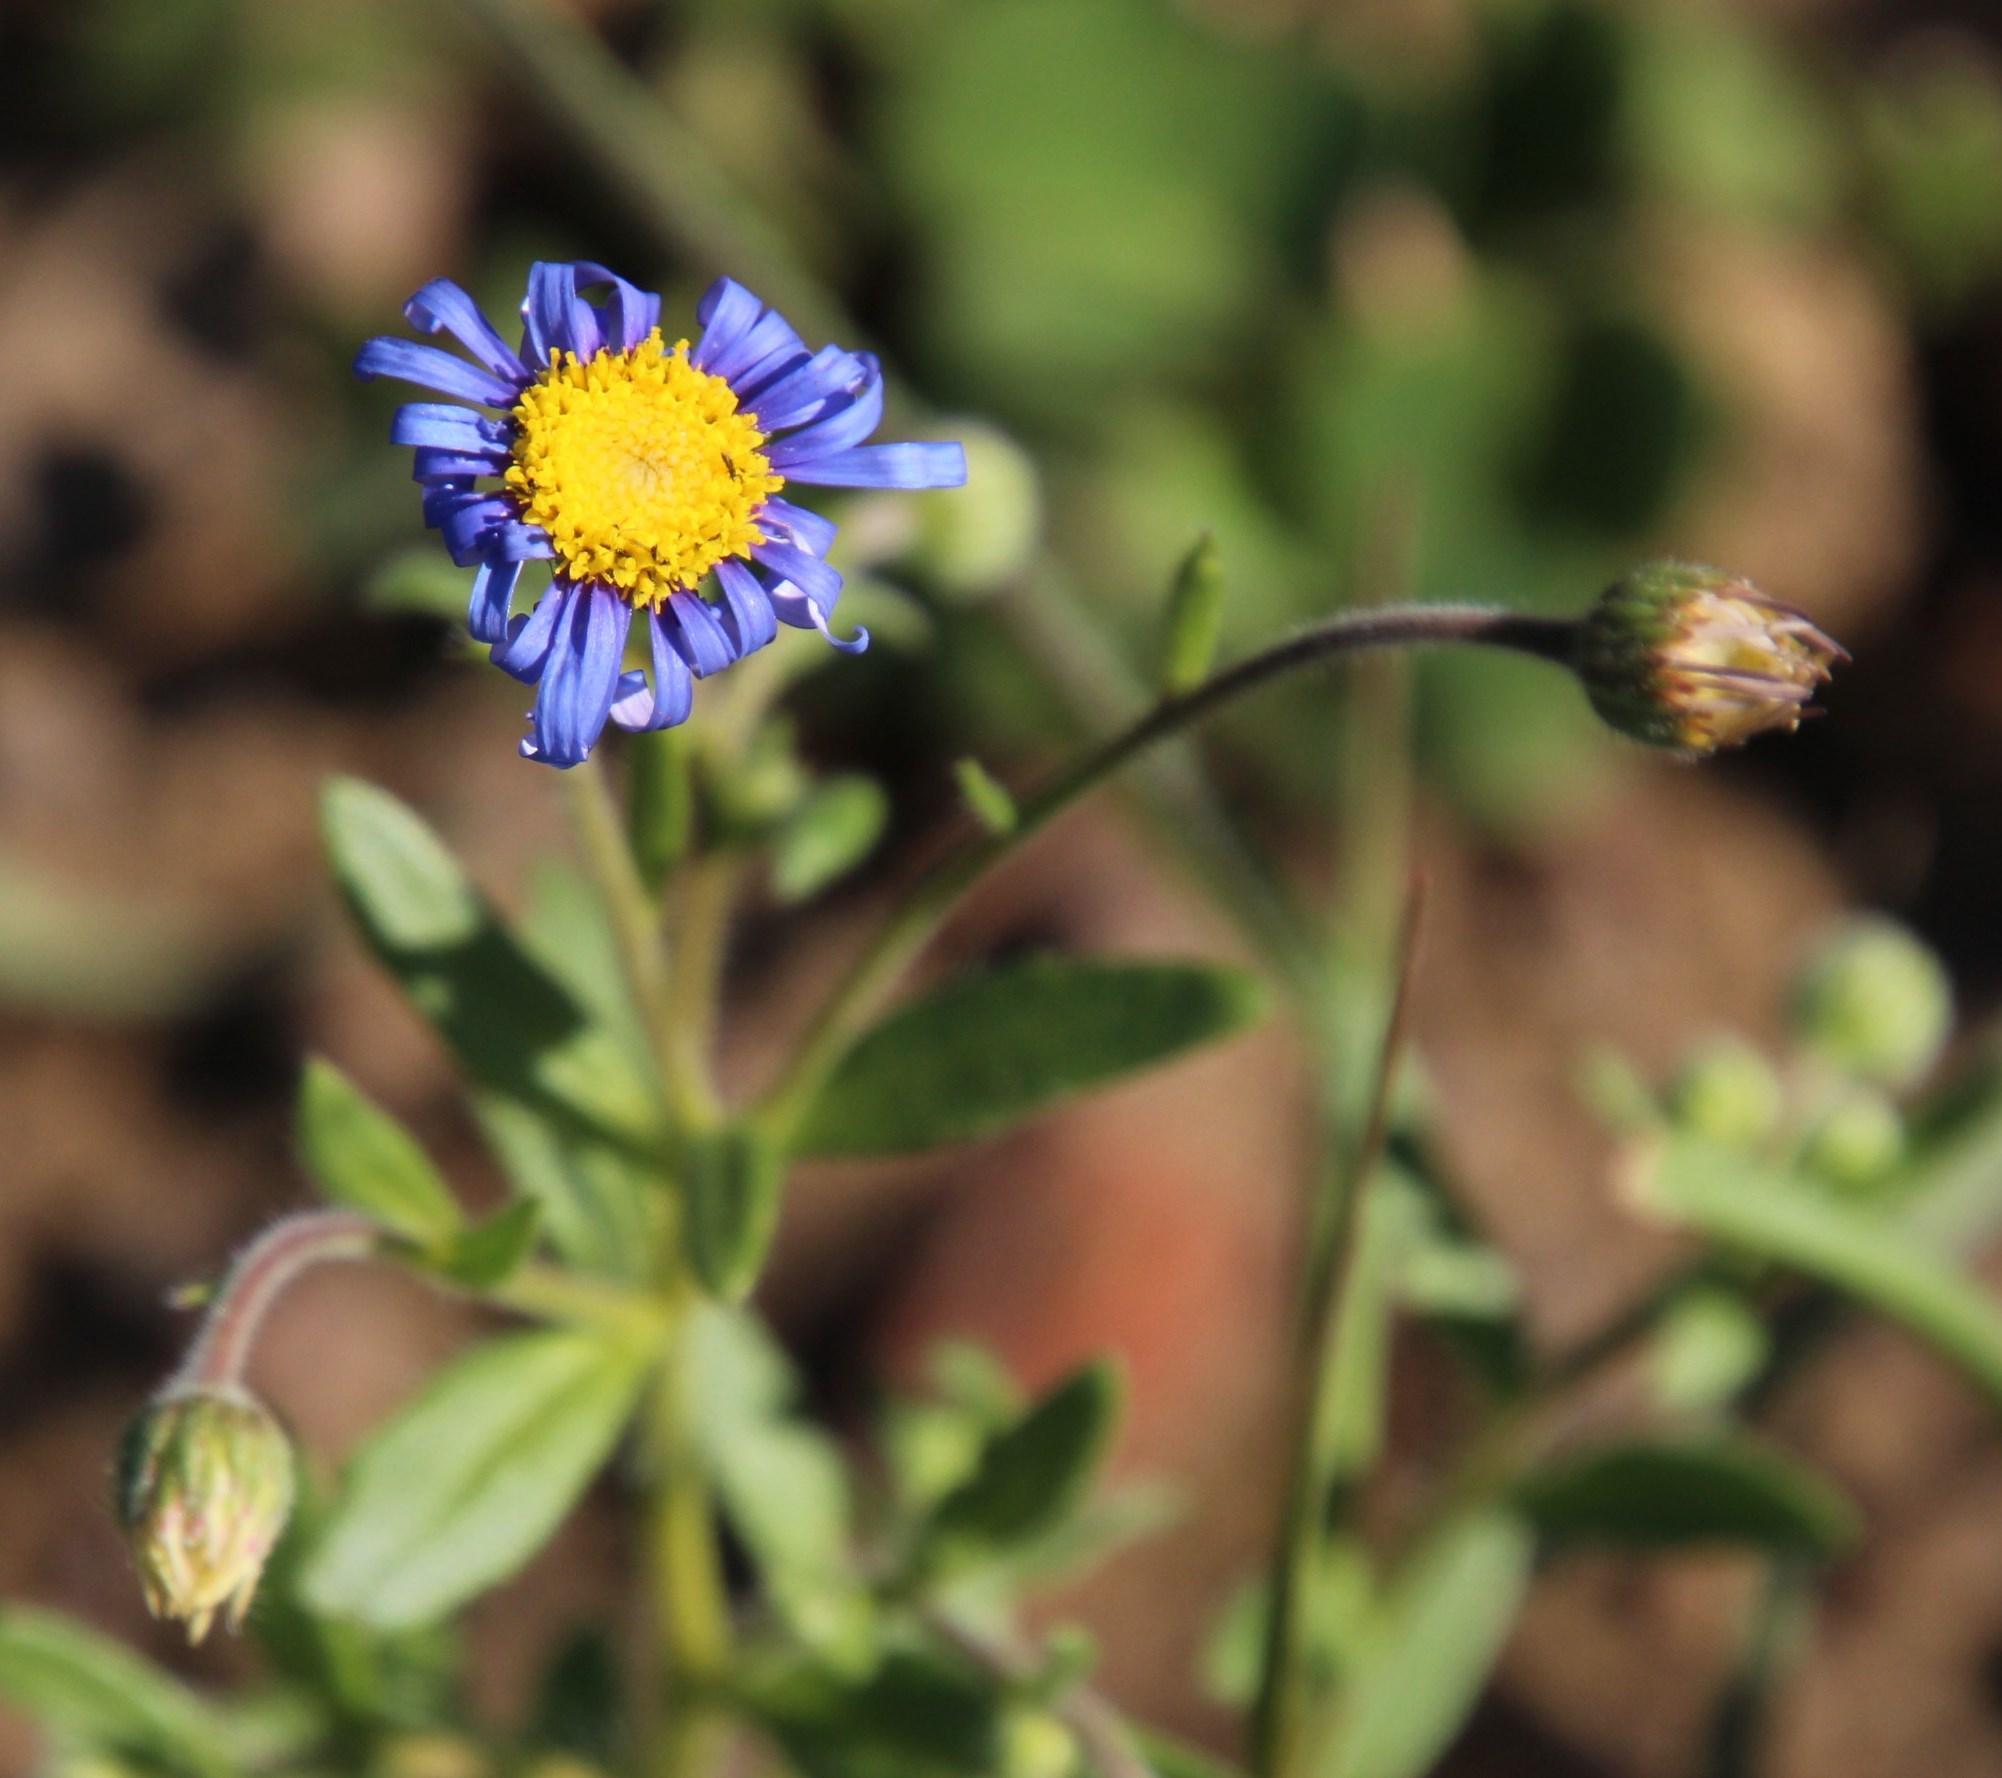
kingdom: Plantae
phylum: Tracheophyta
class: Magnoliopsida
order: Asterales
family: Asteraceae
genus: Felicia
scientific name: Felicia amoena
